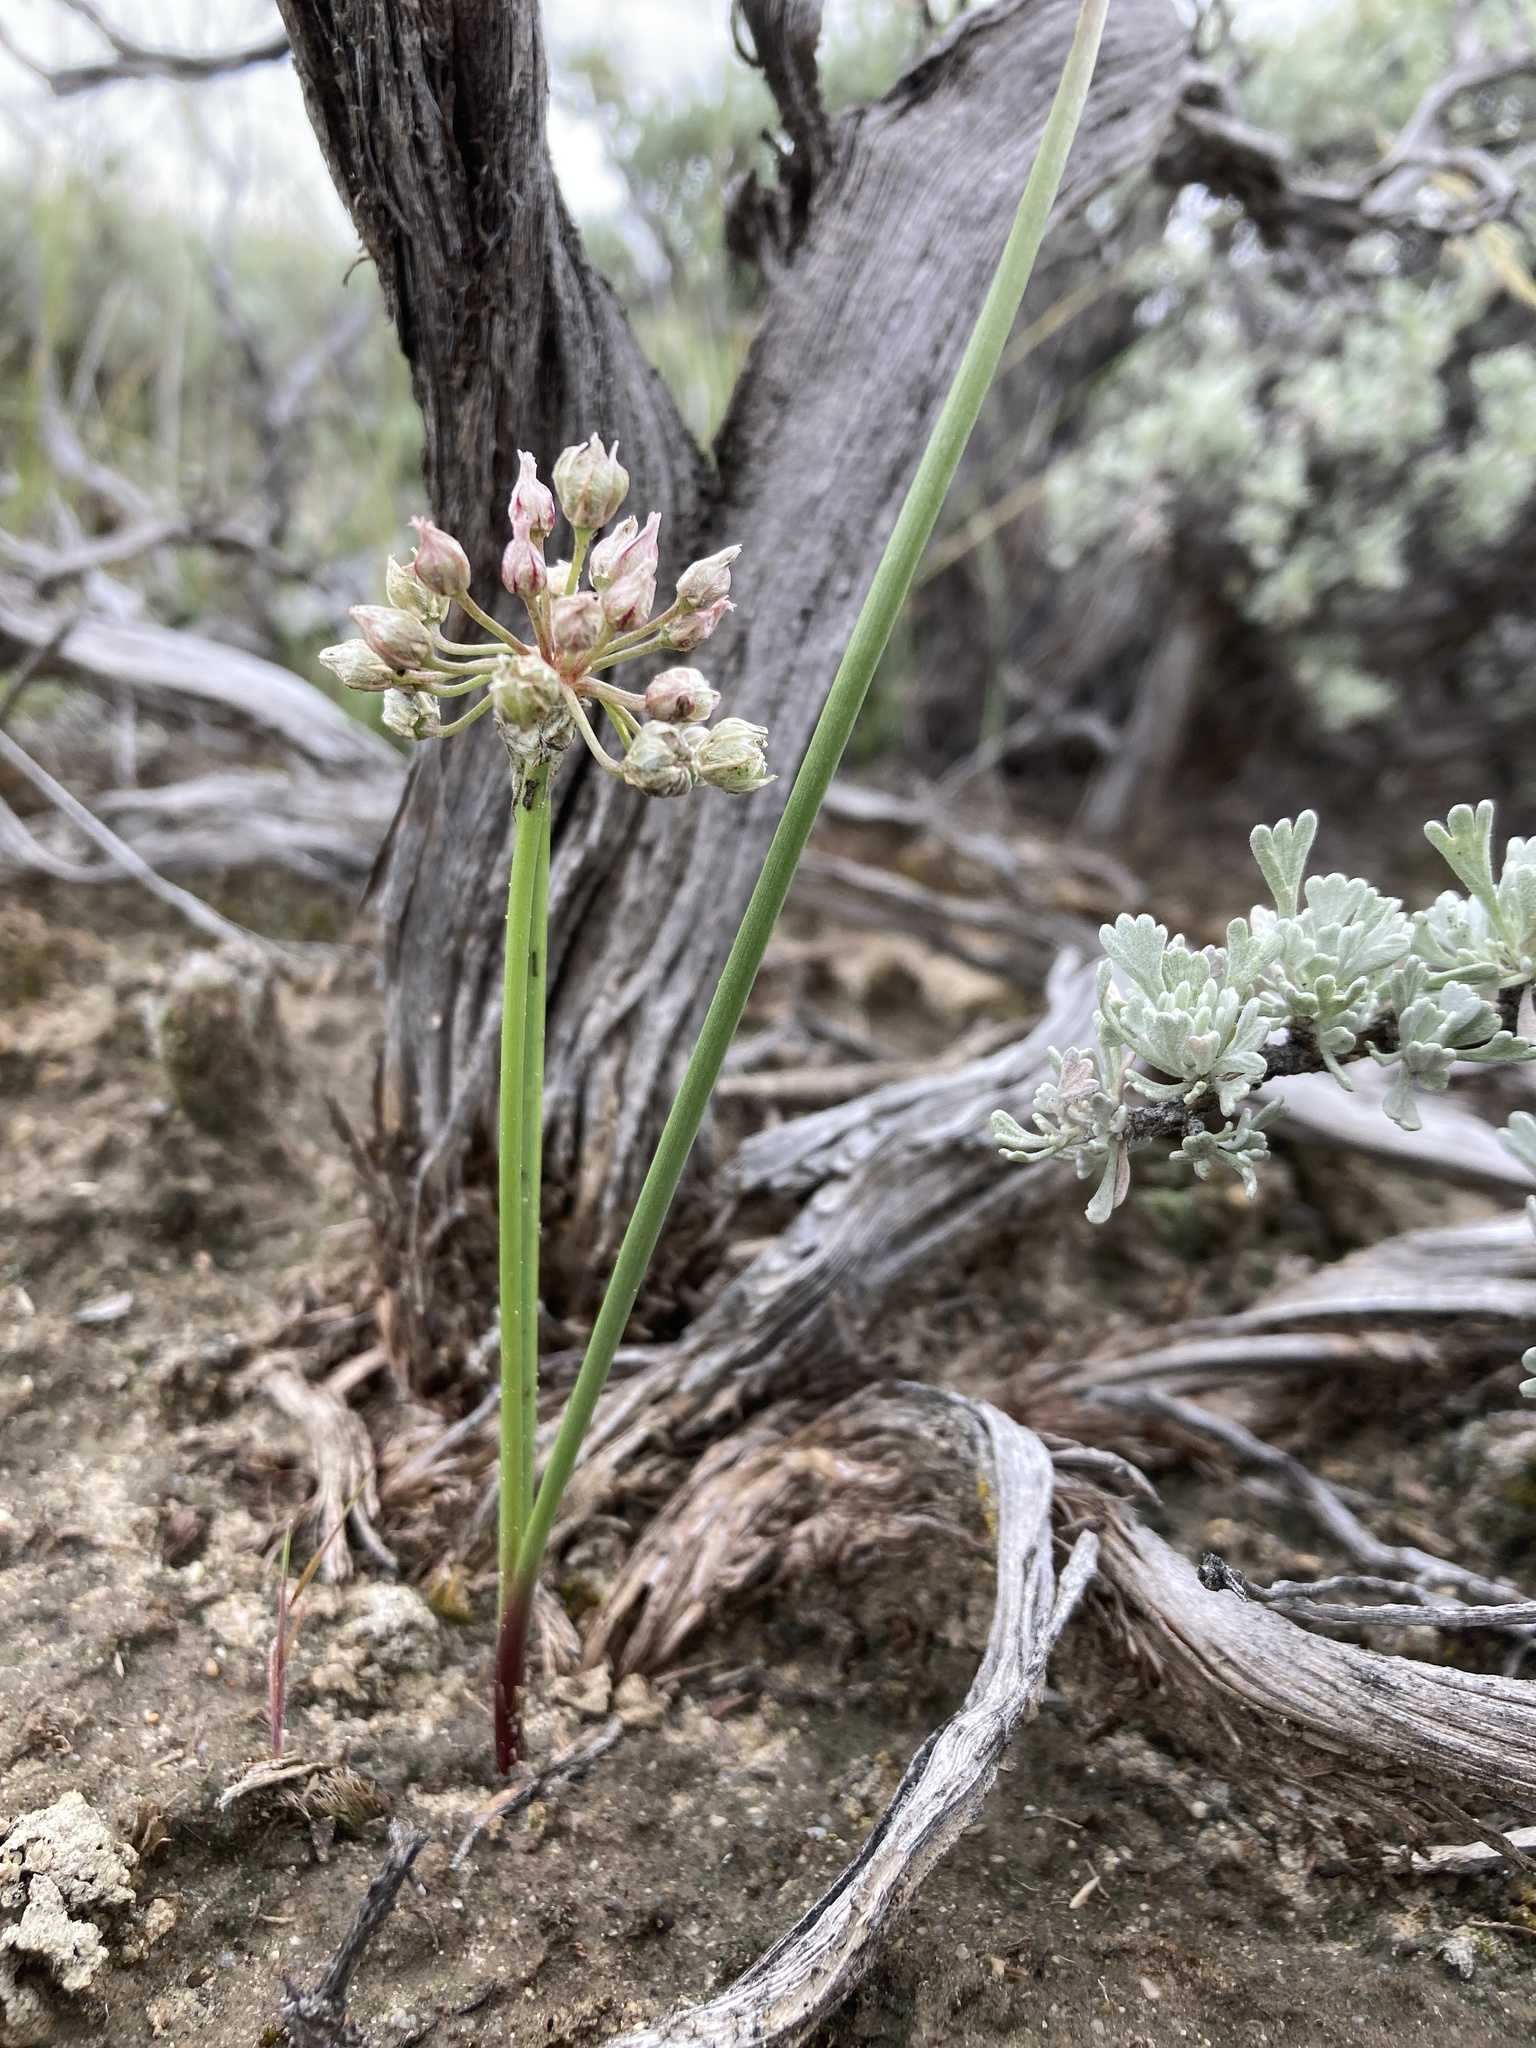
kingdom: Plantae
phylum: Tracheophyta
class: Liliopsida
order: Asparagales
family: Amaryllidaceae
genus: Allium
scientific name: Allium textile
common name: Prairie onion
